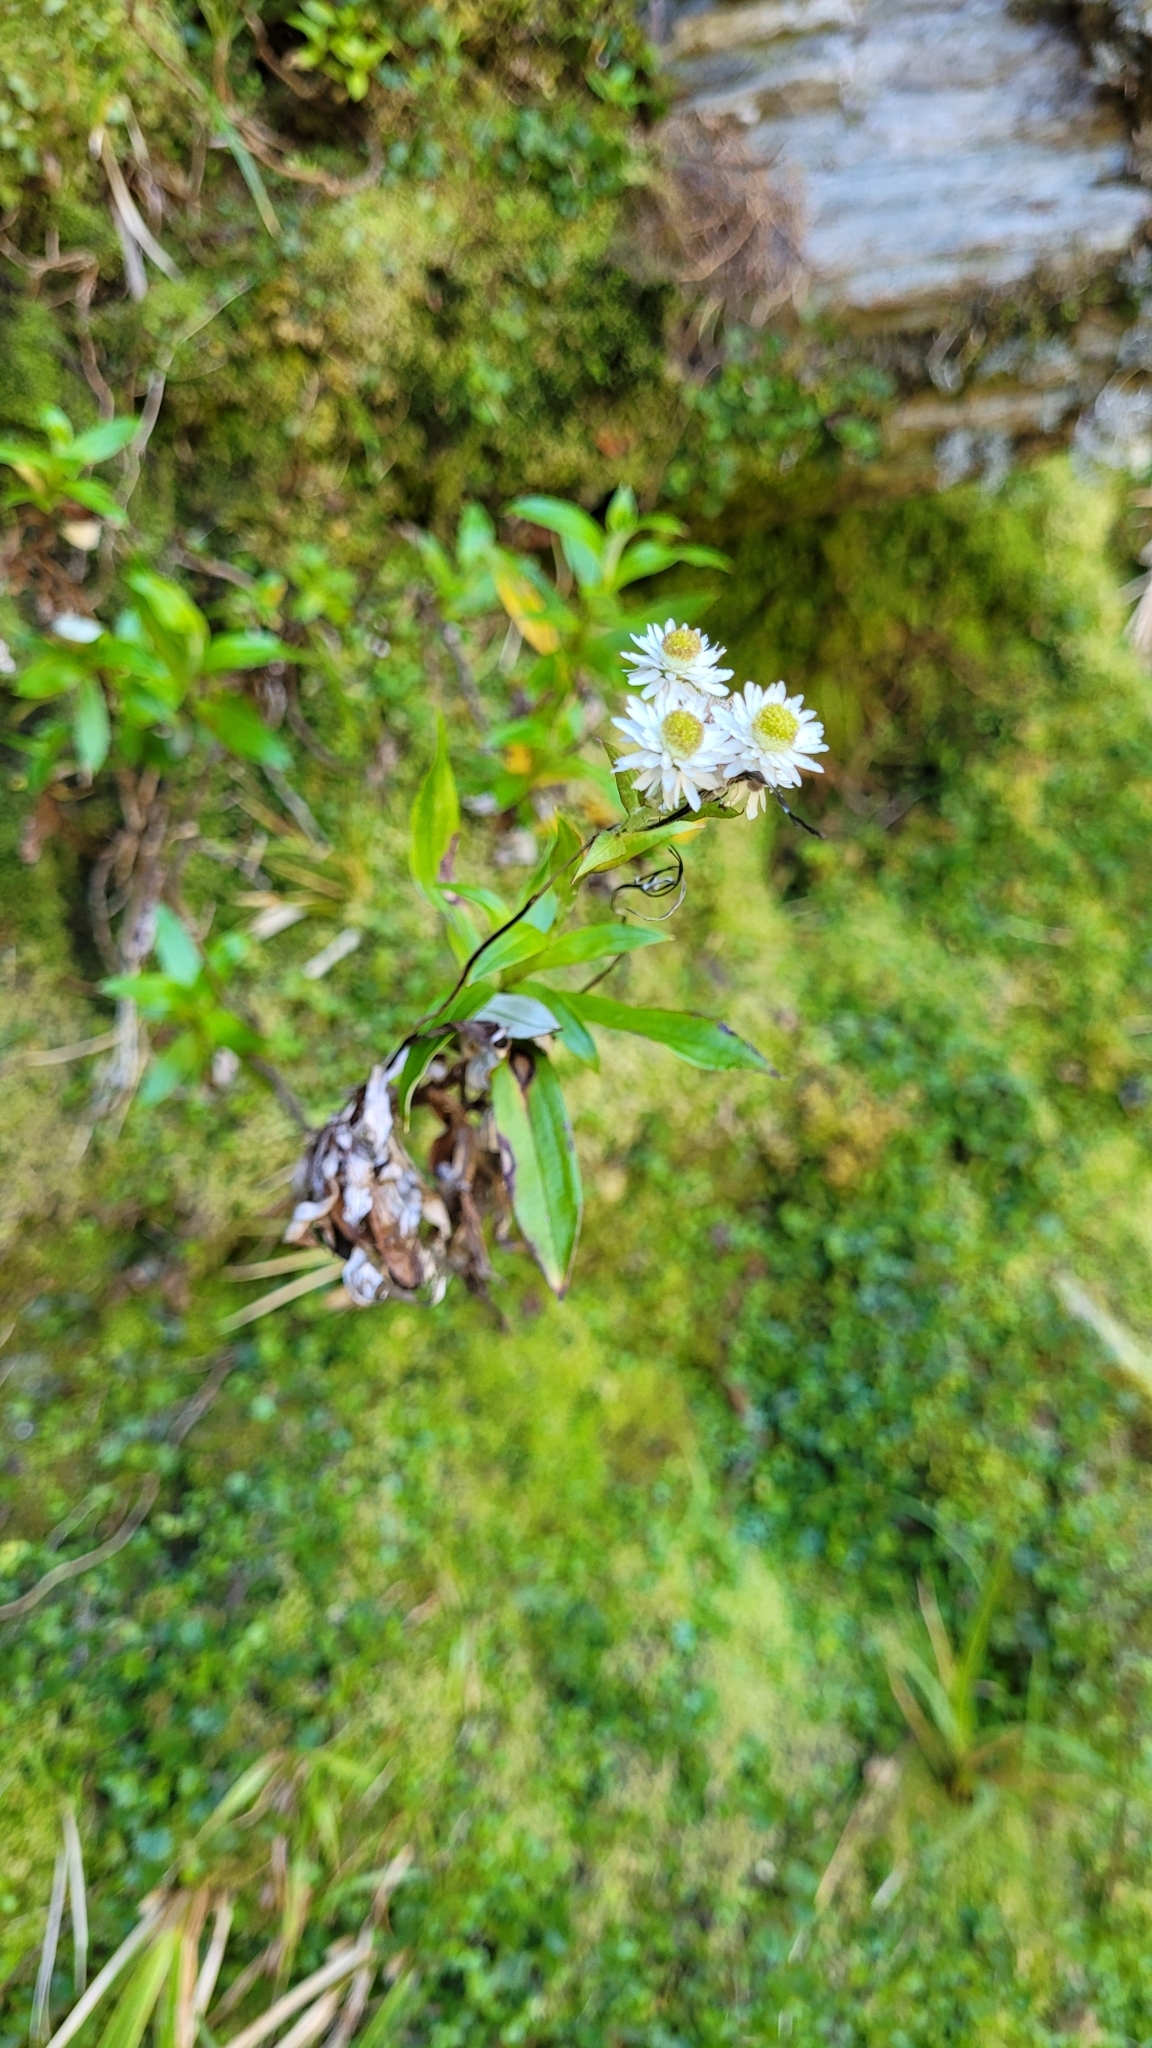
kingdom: Plantae
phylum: Tracheophyta
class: Magnoliopsida
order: Asterales
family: Asteraceae
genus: Anaphalioides
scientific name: Anaphalioides trinervis
